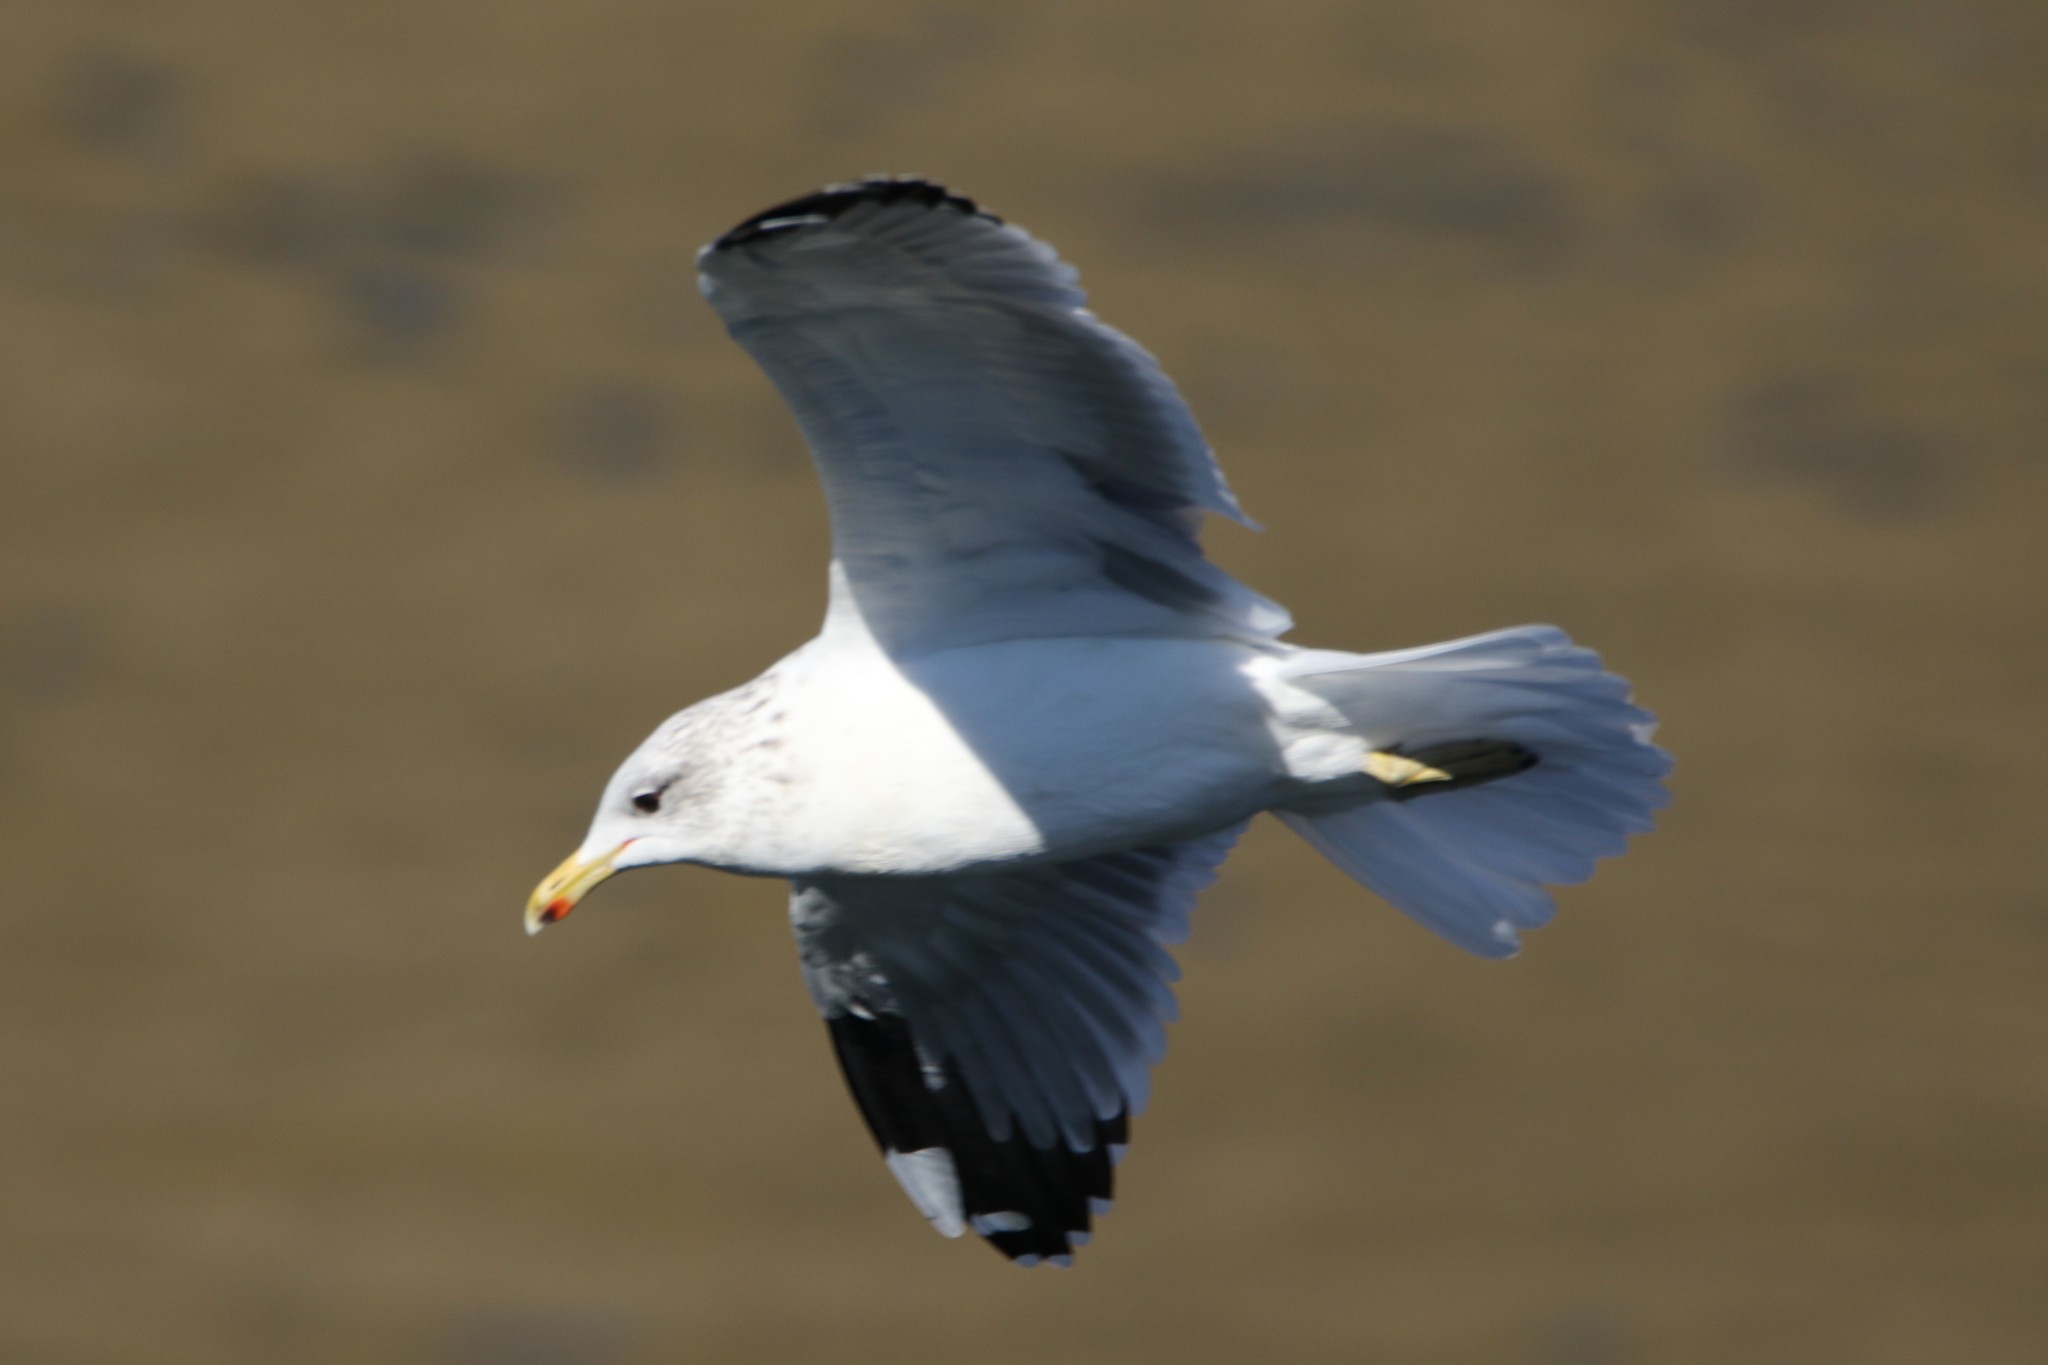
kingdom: Animalia
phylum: Chordata
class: Aves
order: Charadriiformes
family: Laridae
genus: Larus
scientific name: Larus californicus
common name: California gull
